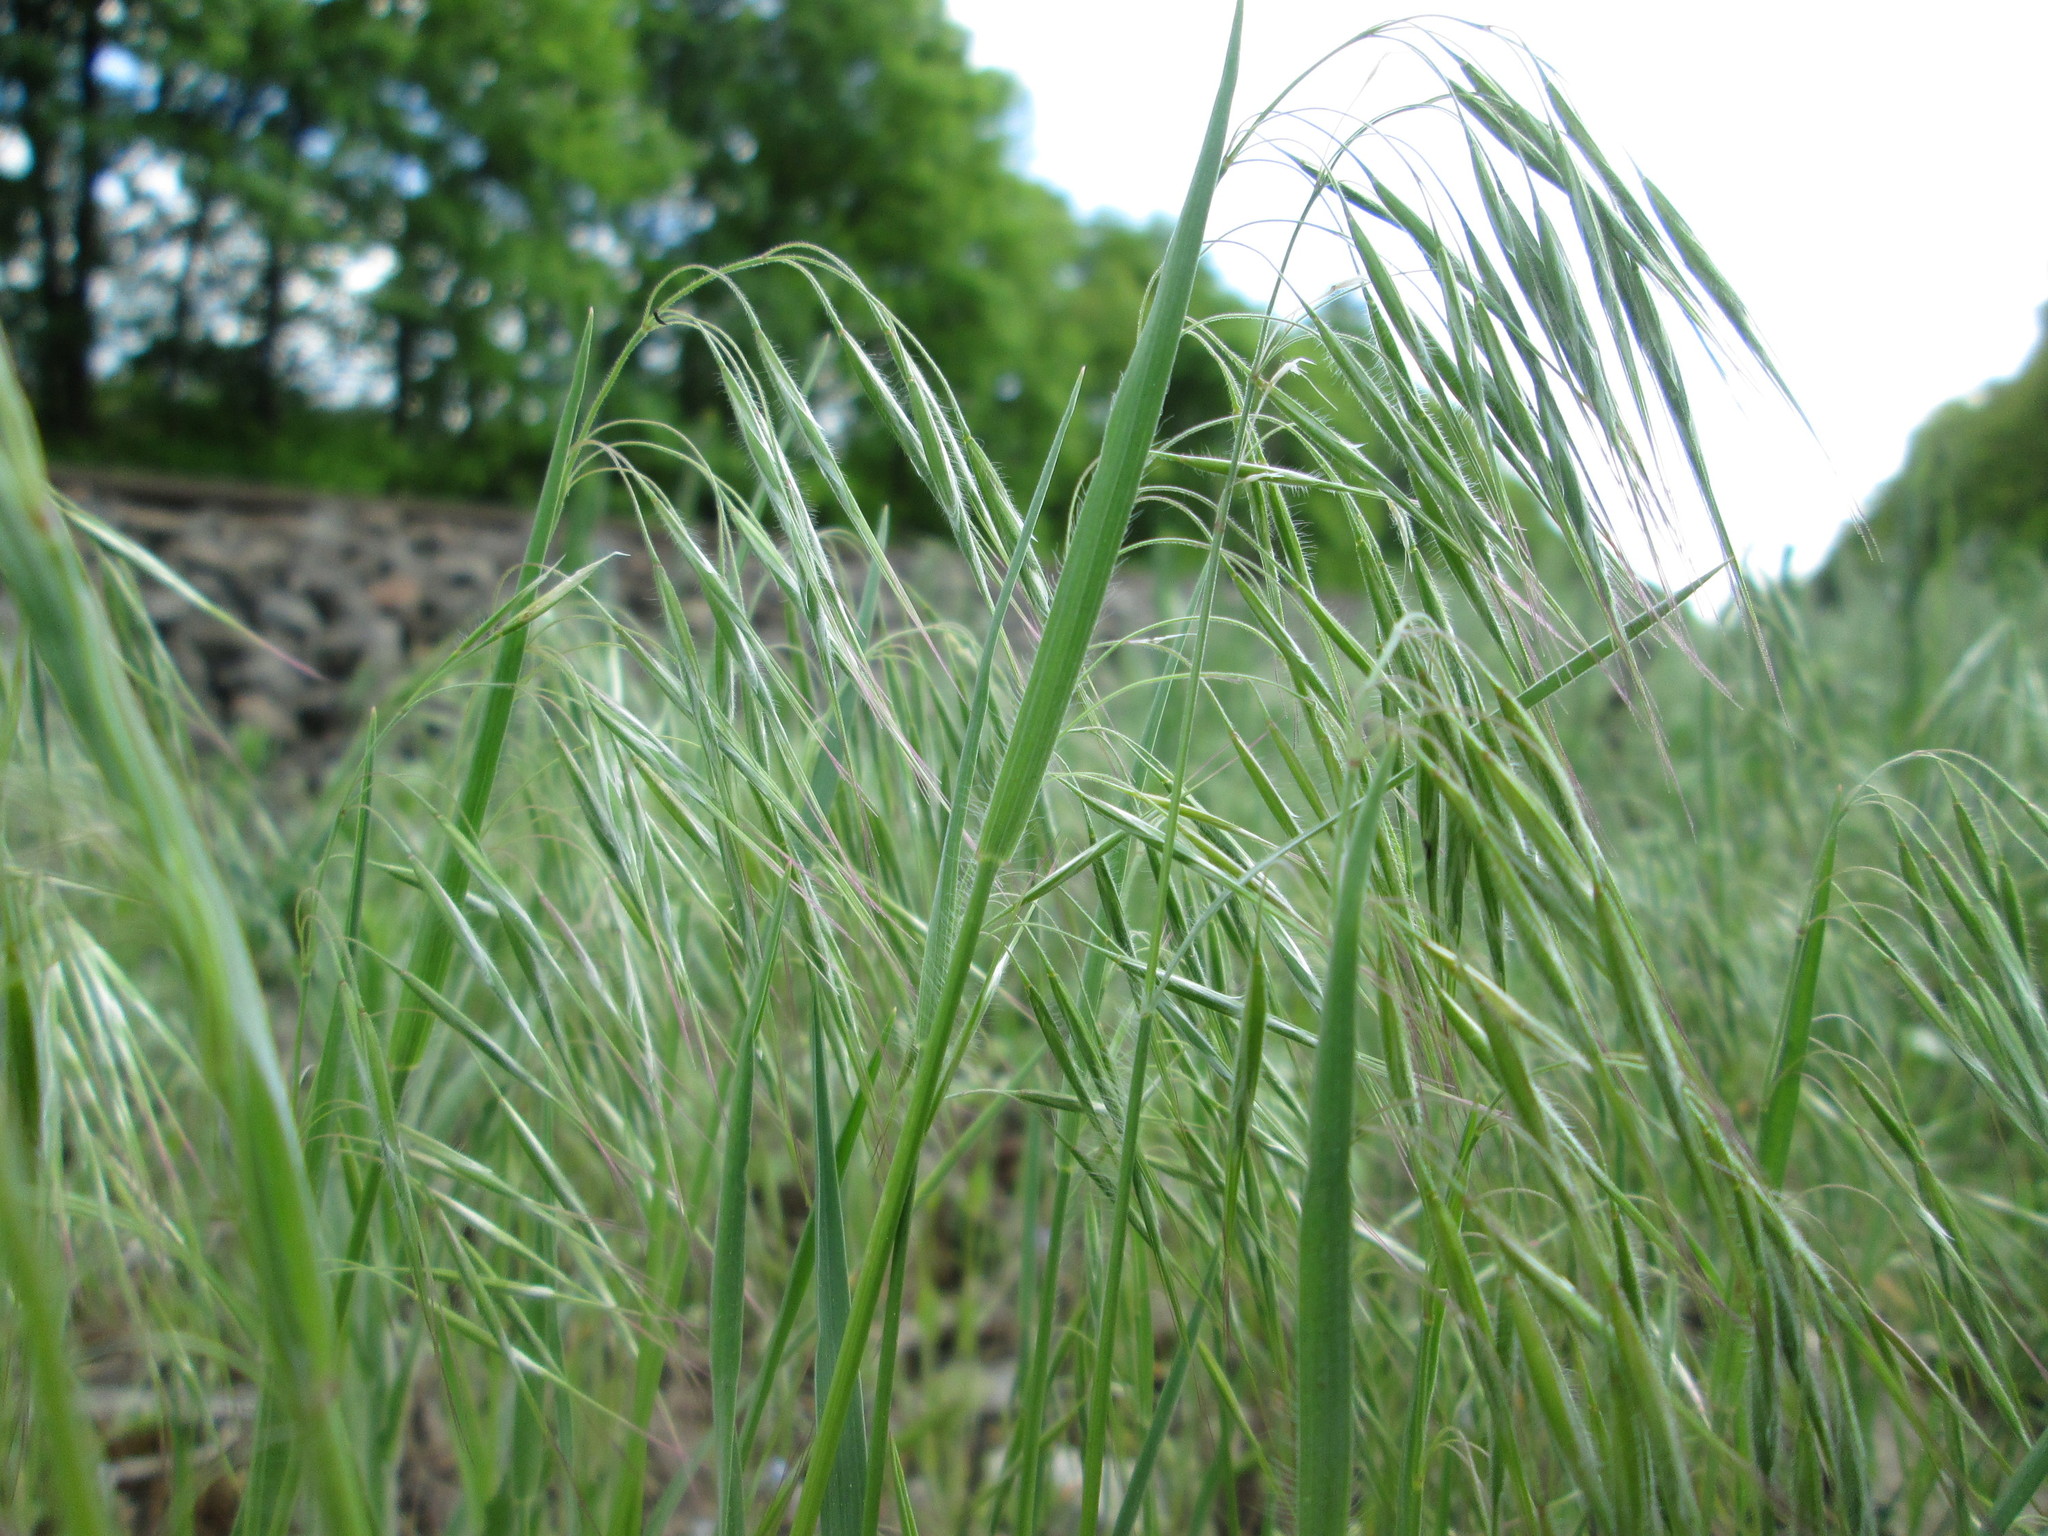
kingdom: Plantae
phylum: Tracheophyta
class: Liliopsida
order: Poales
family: Poaceae
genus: Bromus
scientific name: Bromus tectorum
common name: Cheatgrass
